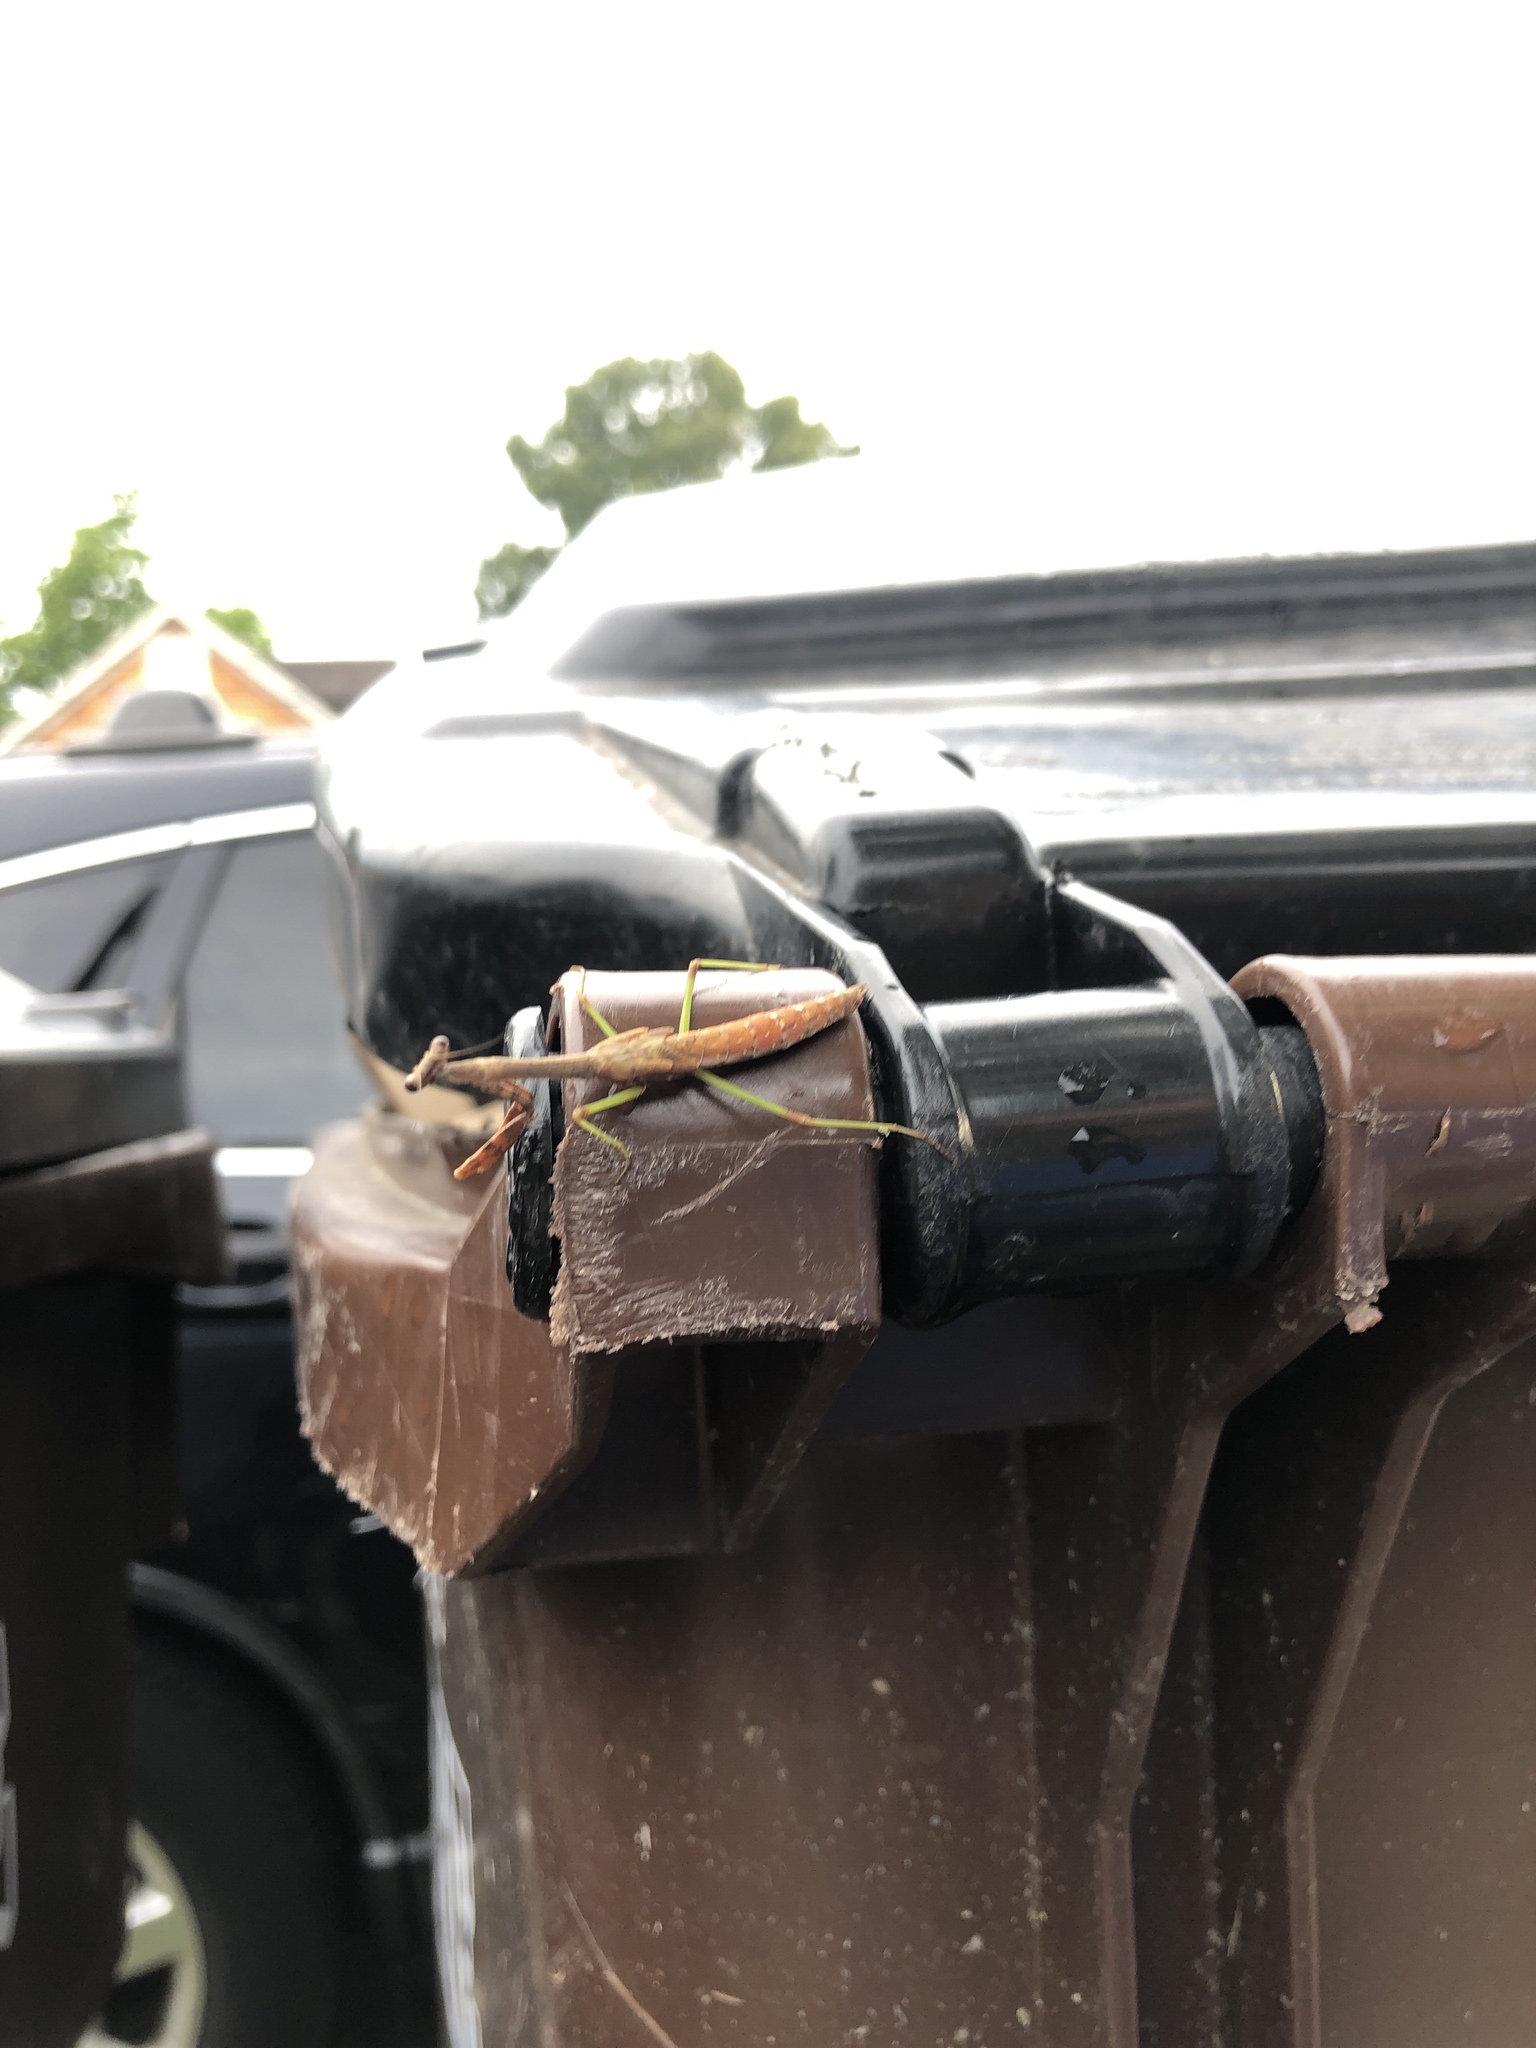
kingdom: Animalia
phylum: Arthropoda
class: Insecta
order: Mantodea
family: Mantidae
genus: Stagmomantis
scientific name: Stagmomantis carolina
